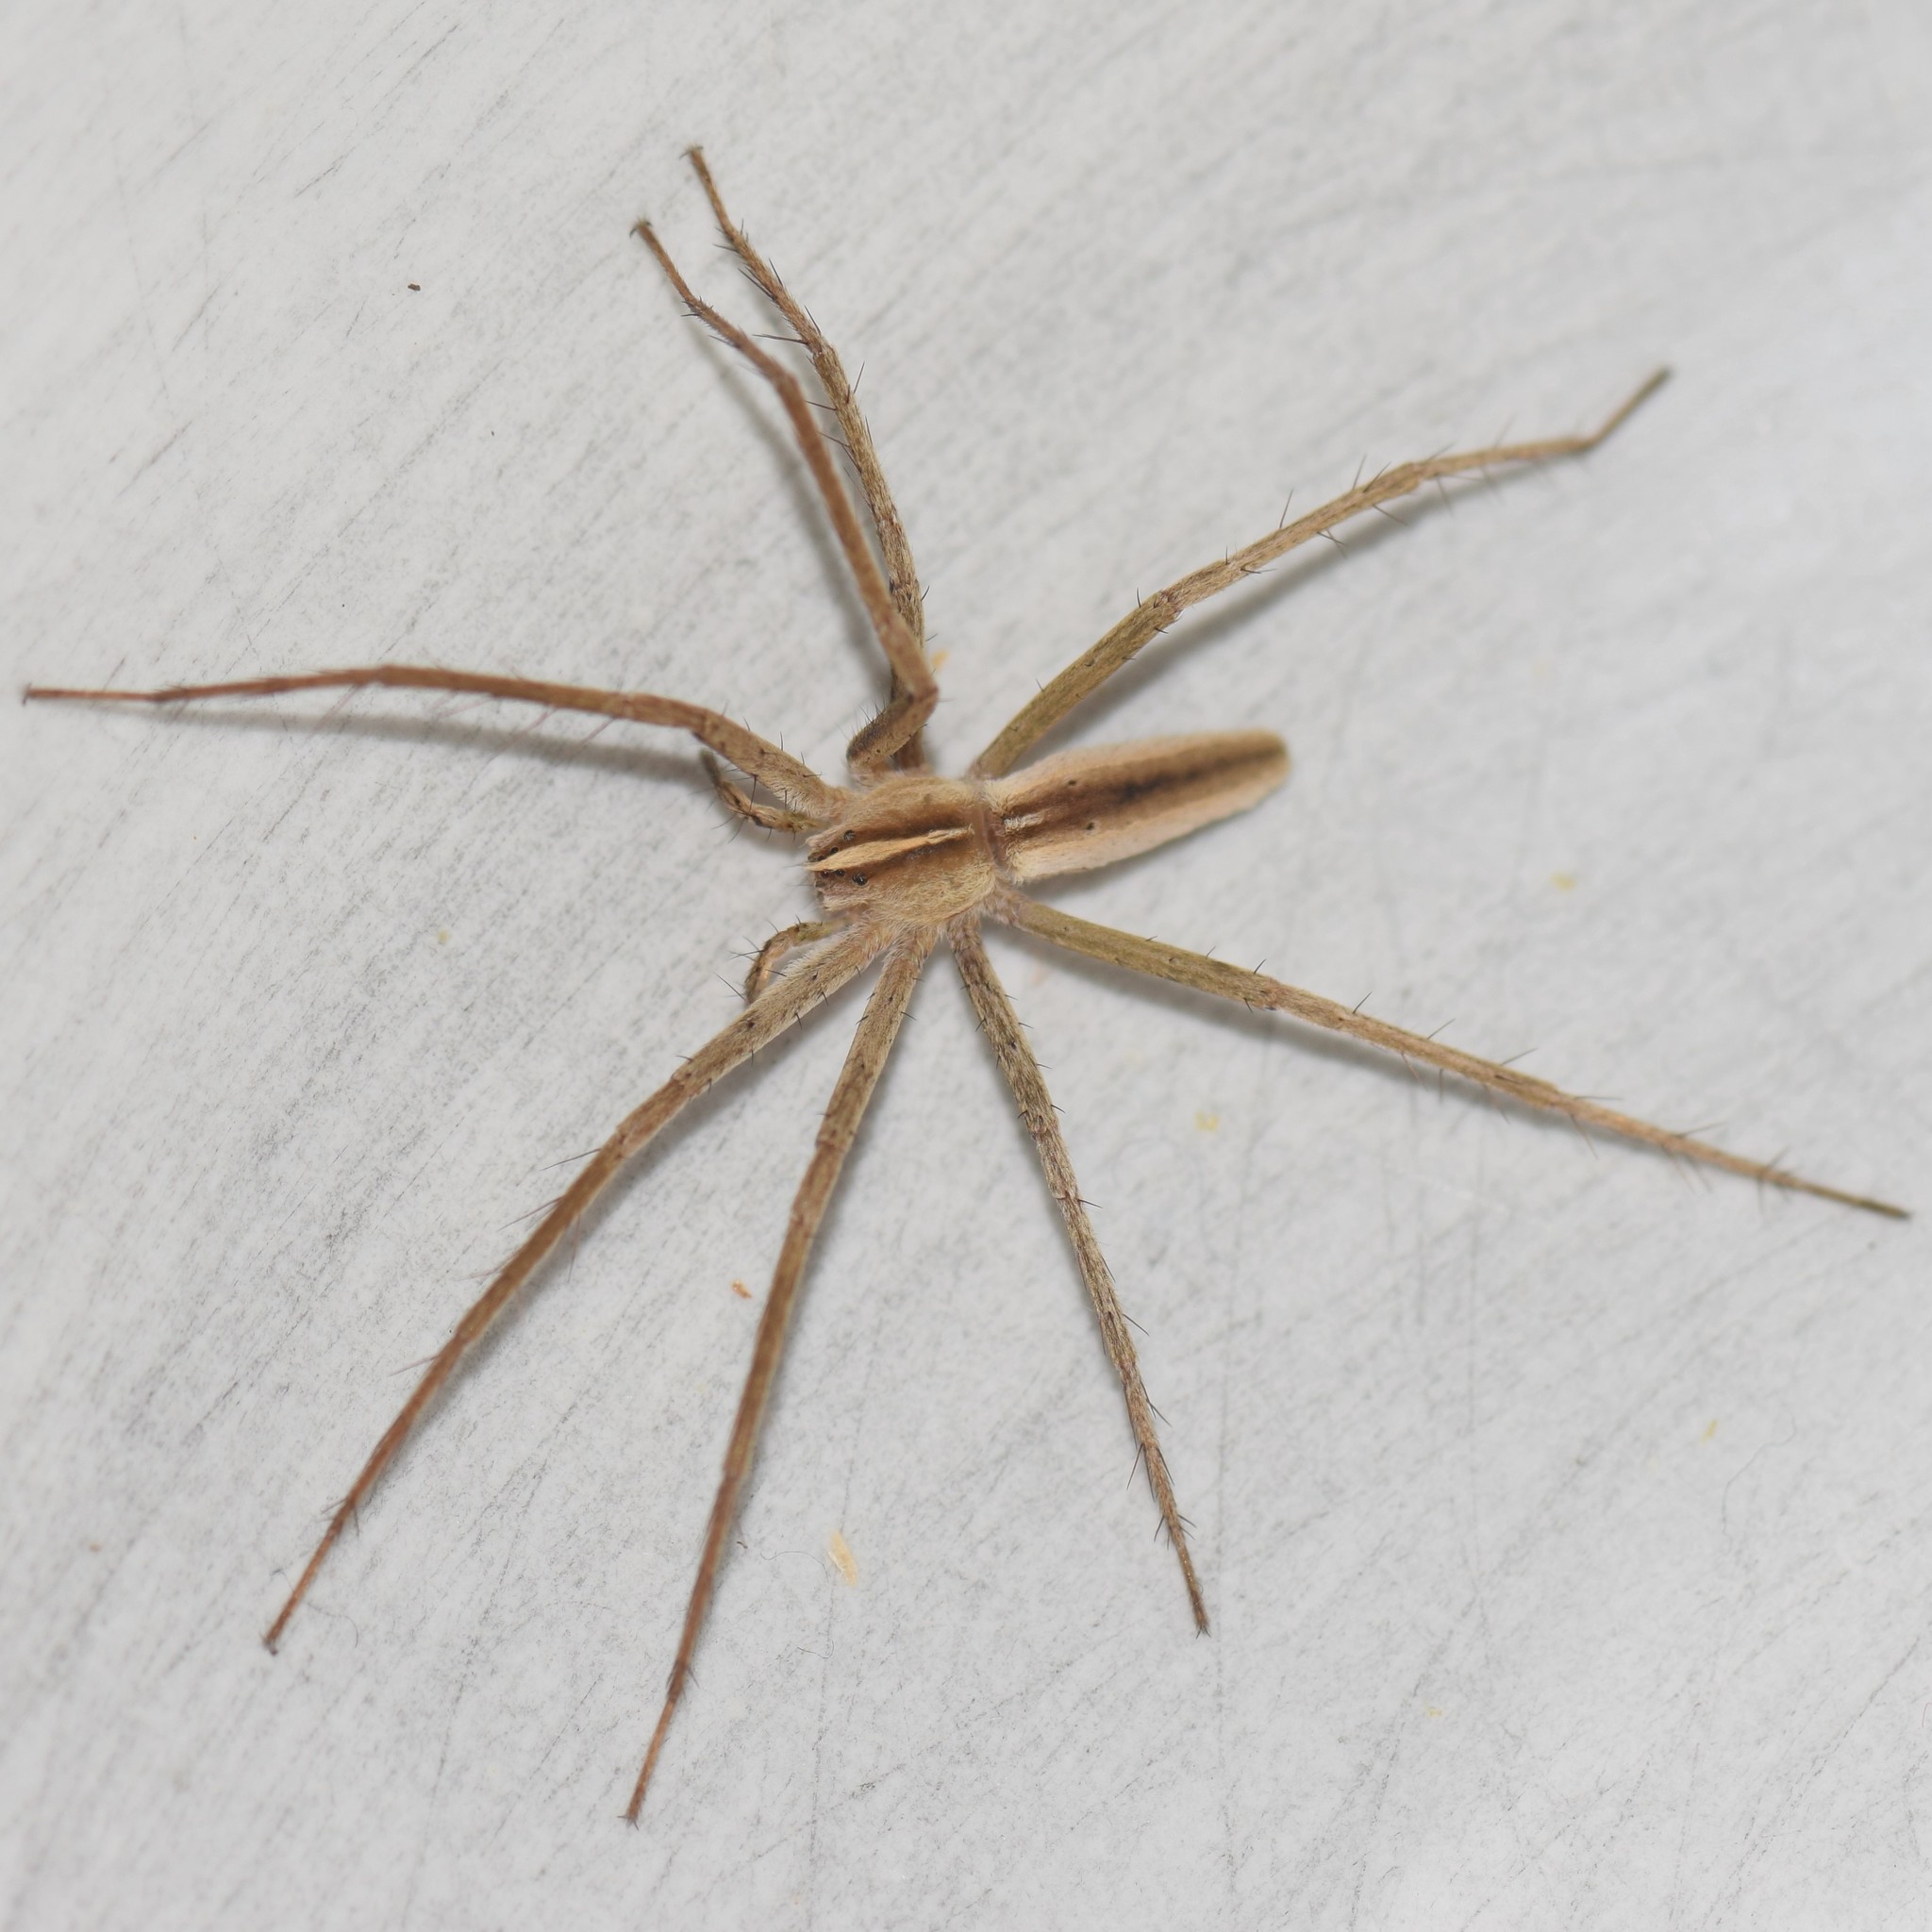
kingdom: Animalia
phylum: Arthropoda
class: Arachnida
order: Araneae
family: Pisauridae
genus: Pisaurina
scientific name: Pisaurina dubia
